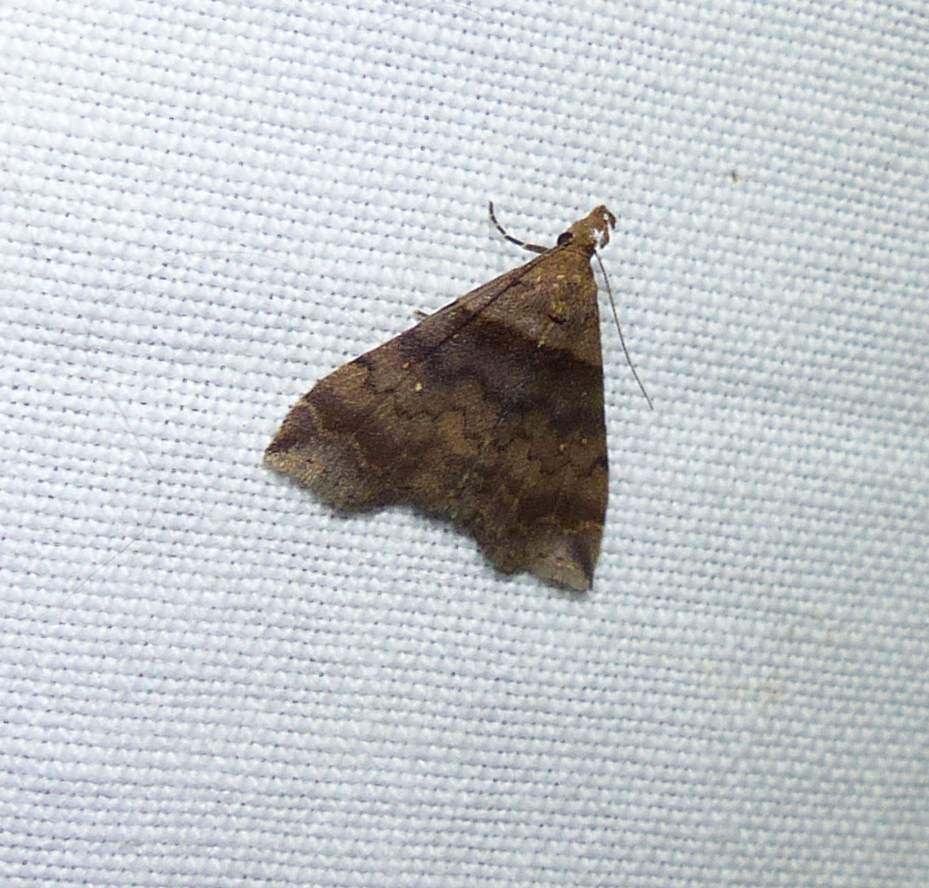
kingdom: Animalia
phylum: Arthropoda
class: Insecta
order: Lepidoptera
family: Erebidae
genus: Lascoria
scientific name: Lascoria ambigualis
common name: Ambiguous moth
